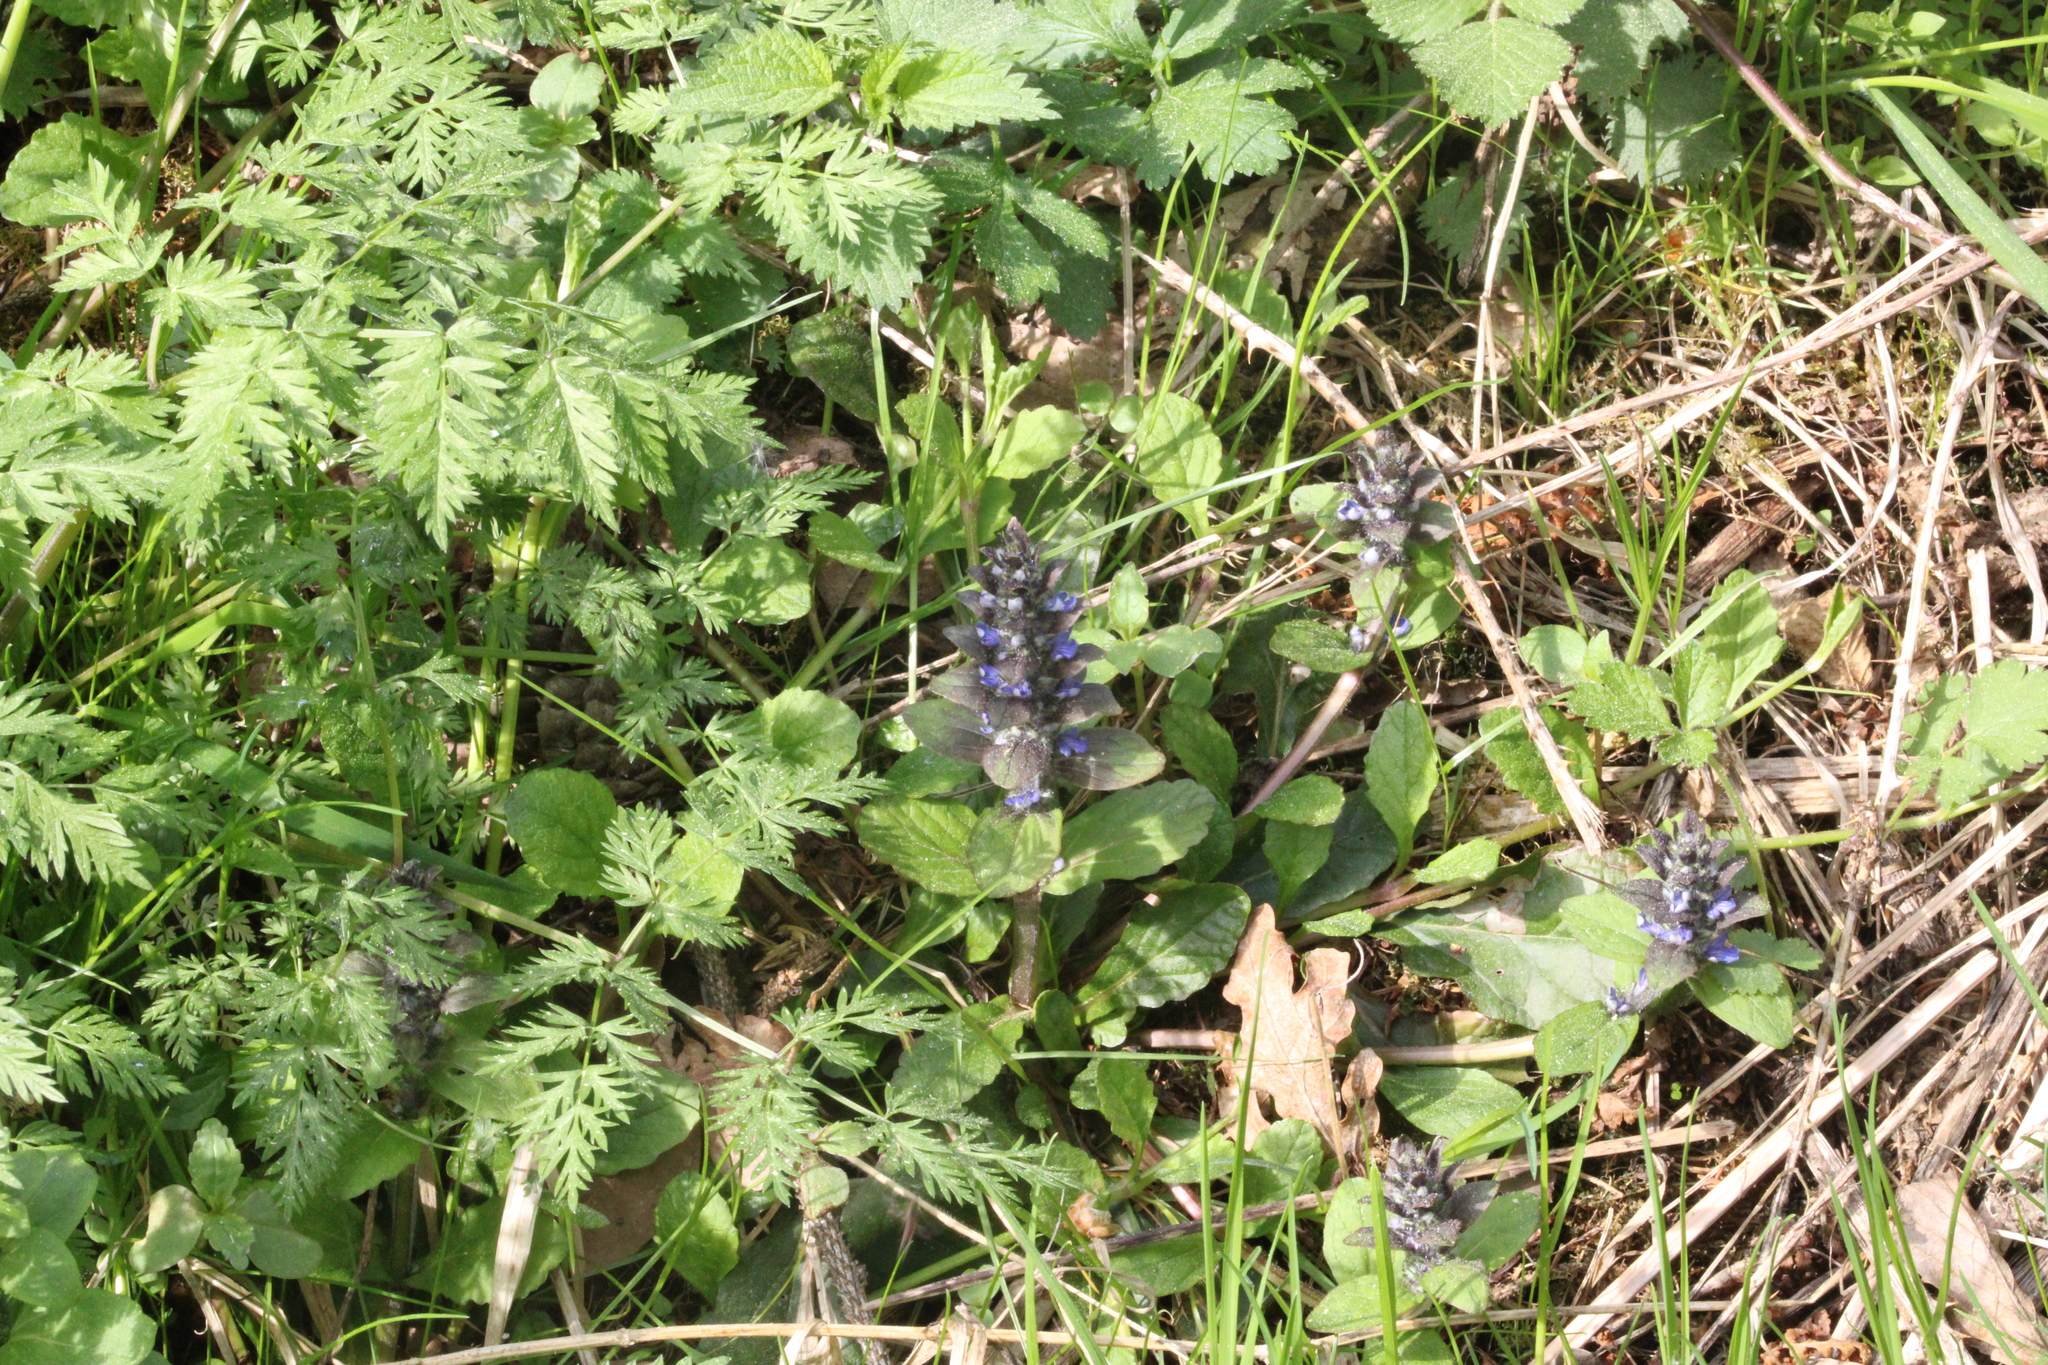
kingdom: Plantae
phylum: Tracheophyta
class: Magnoliopsida
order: Lamiales
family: Lamiaceae
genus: Ajuga
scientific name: Ajuga reptans
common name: Bugle
